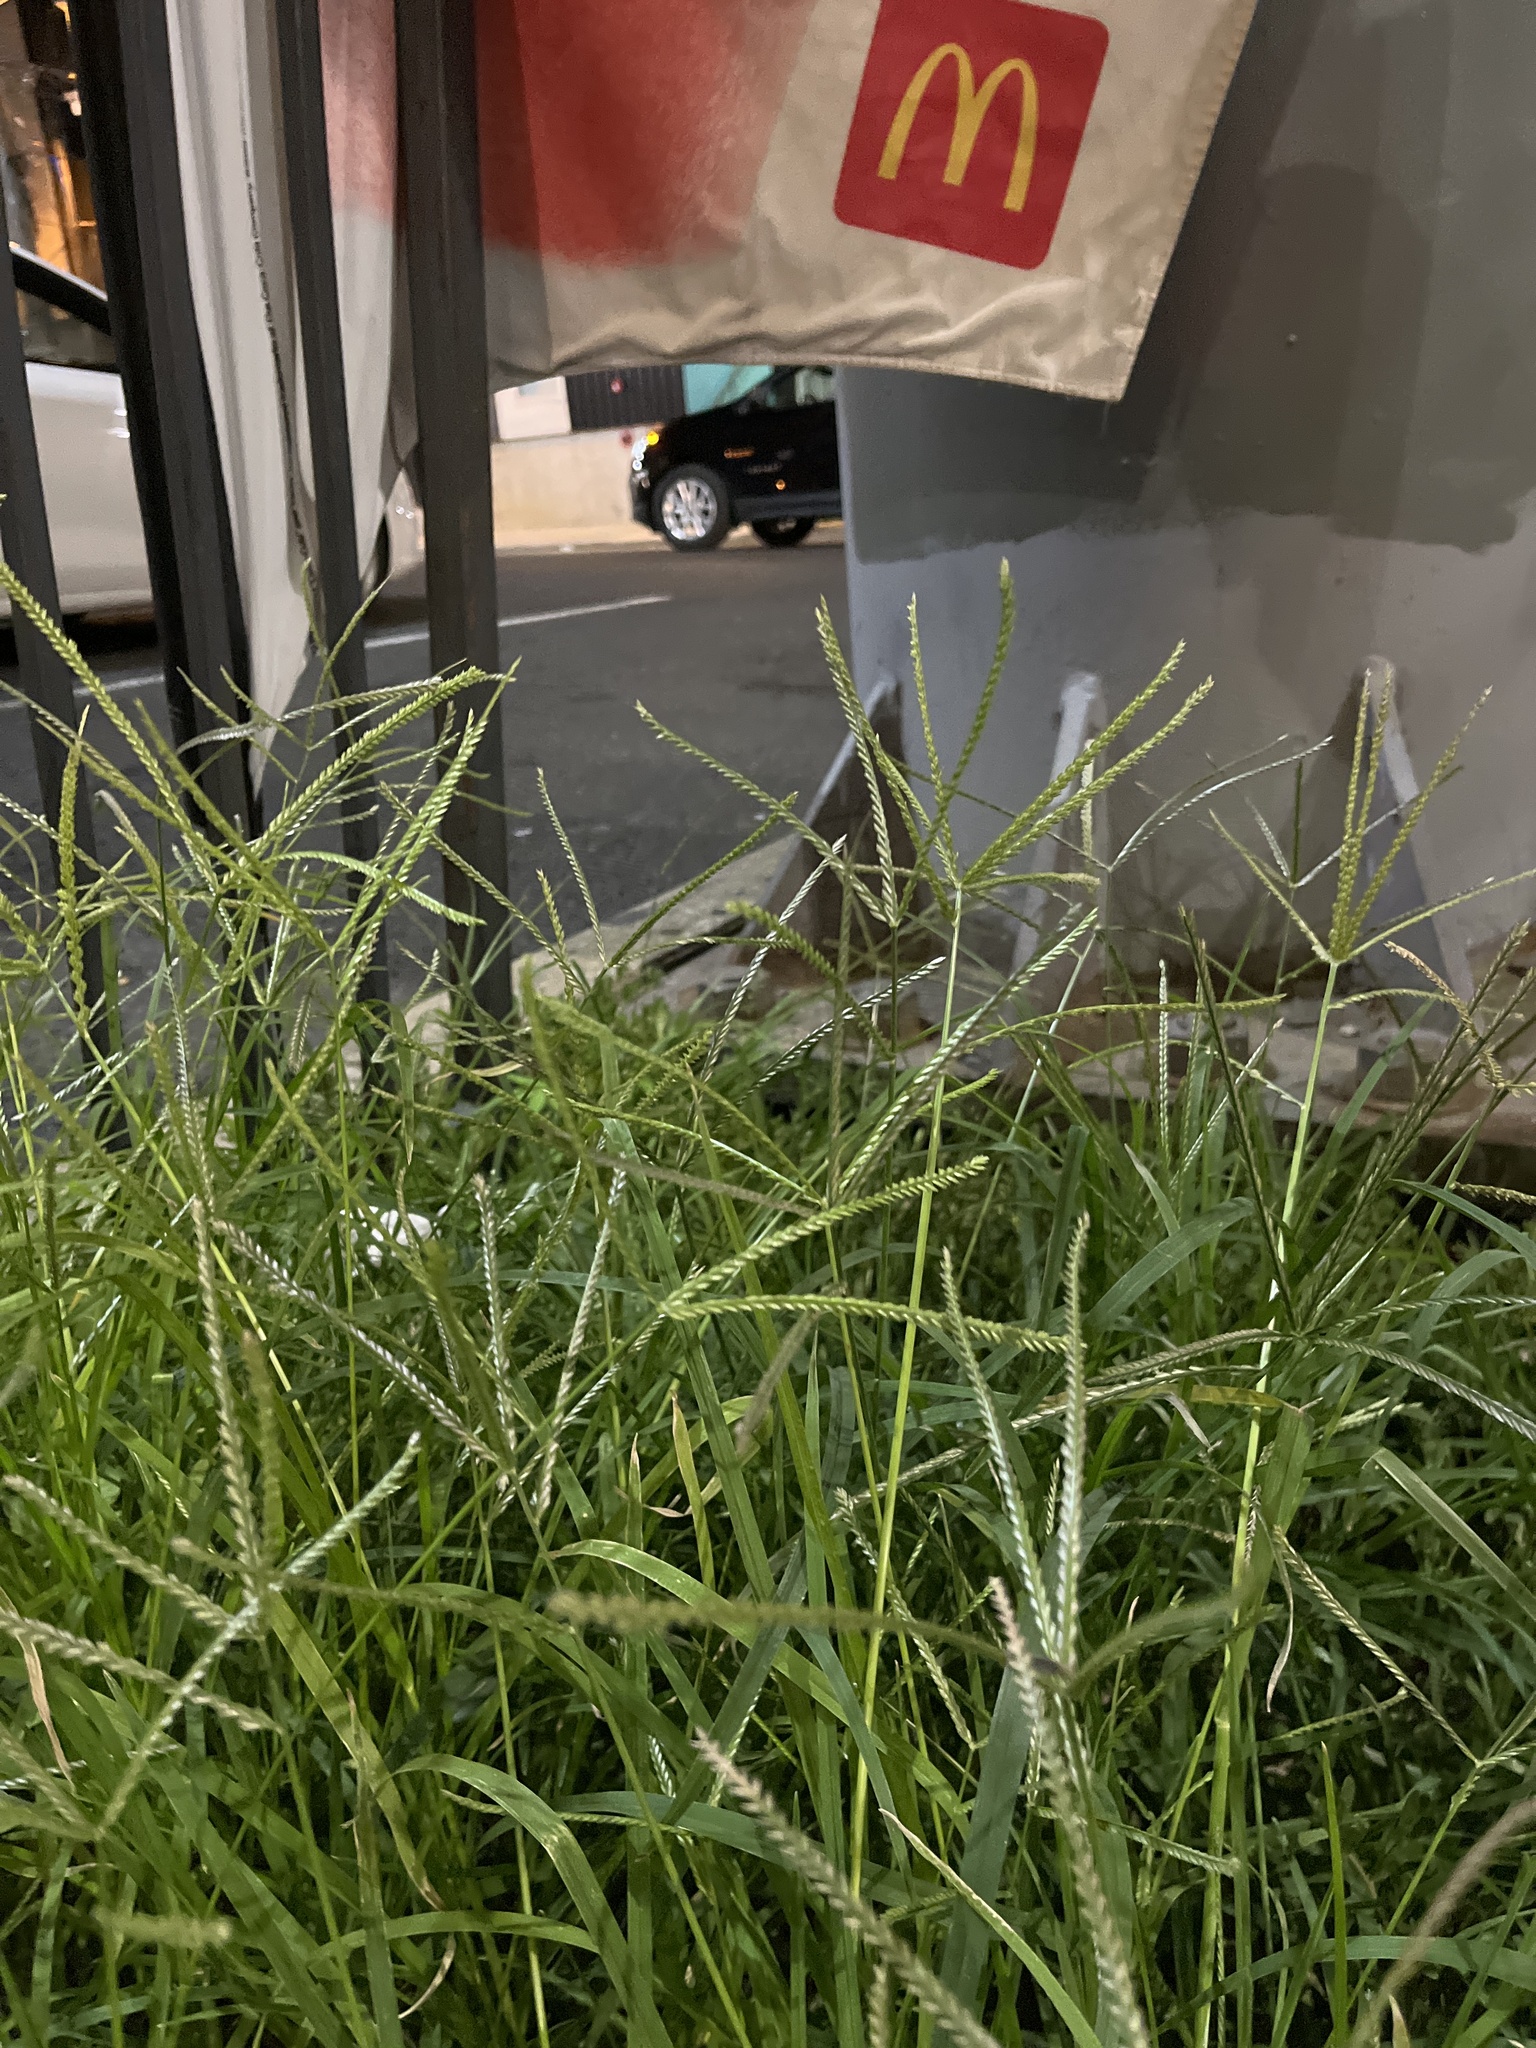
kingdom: Plantae
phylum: Tracheophyta
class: Liliopsida
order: Poales
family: Poaceae
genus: Eleusine
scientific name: Eleusine indica
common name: Yard-grass
